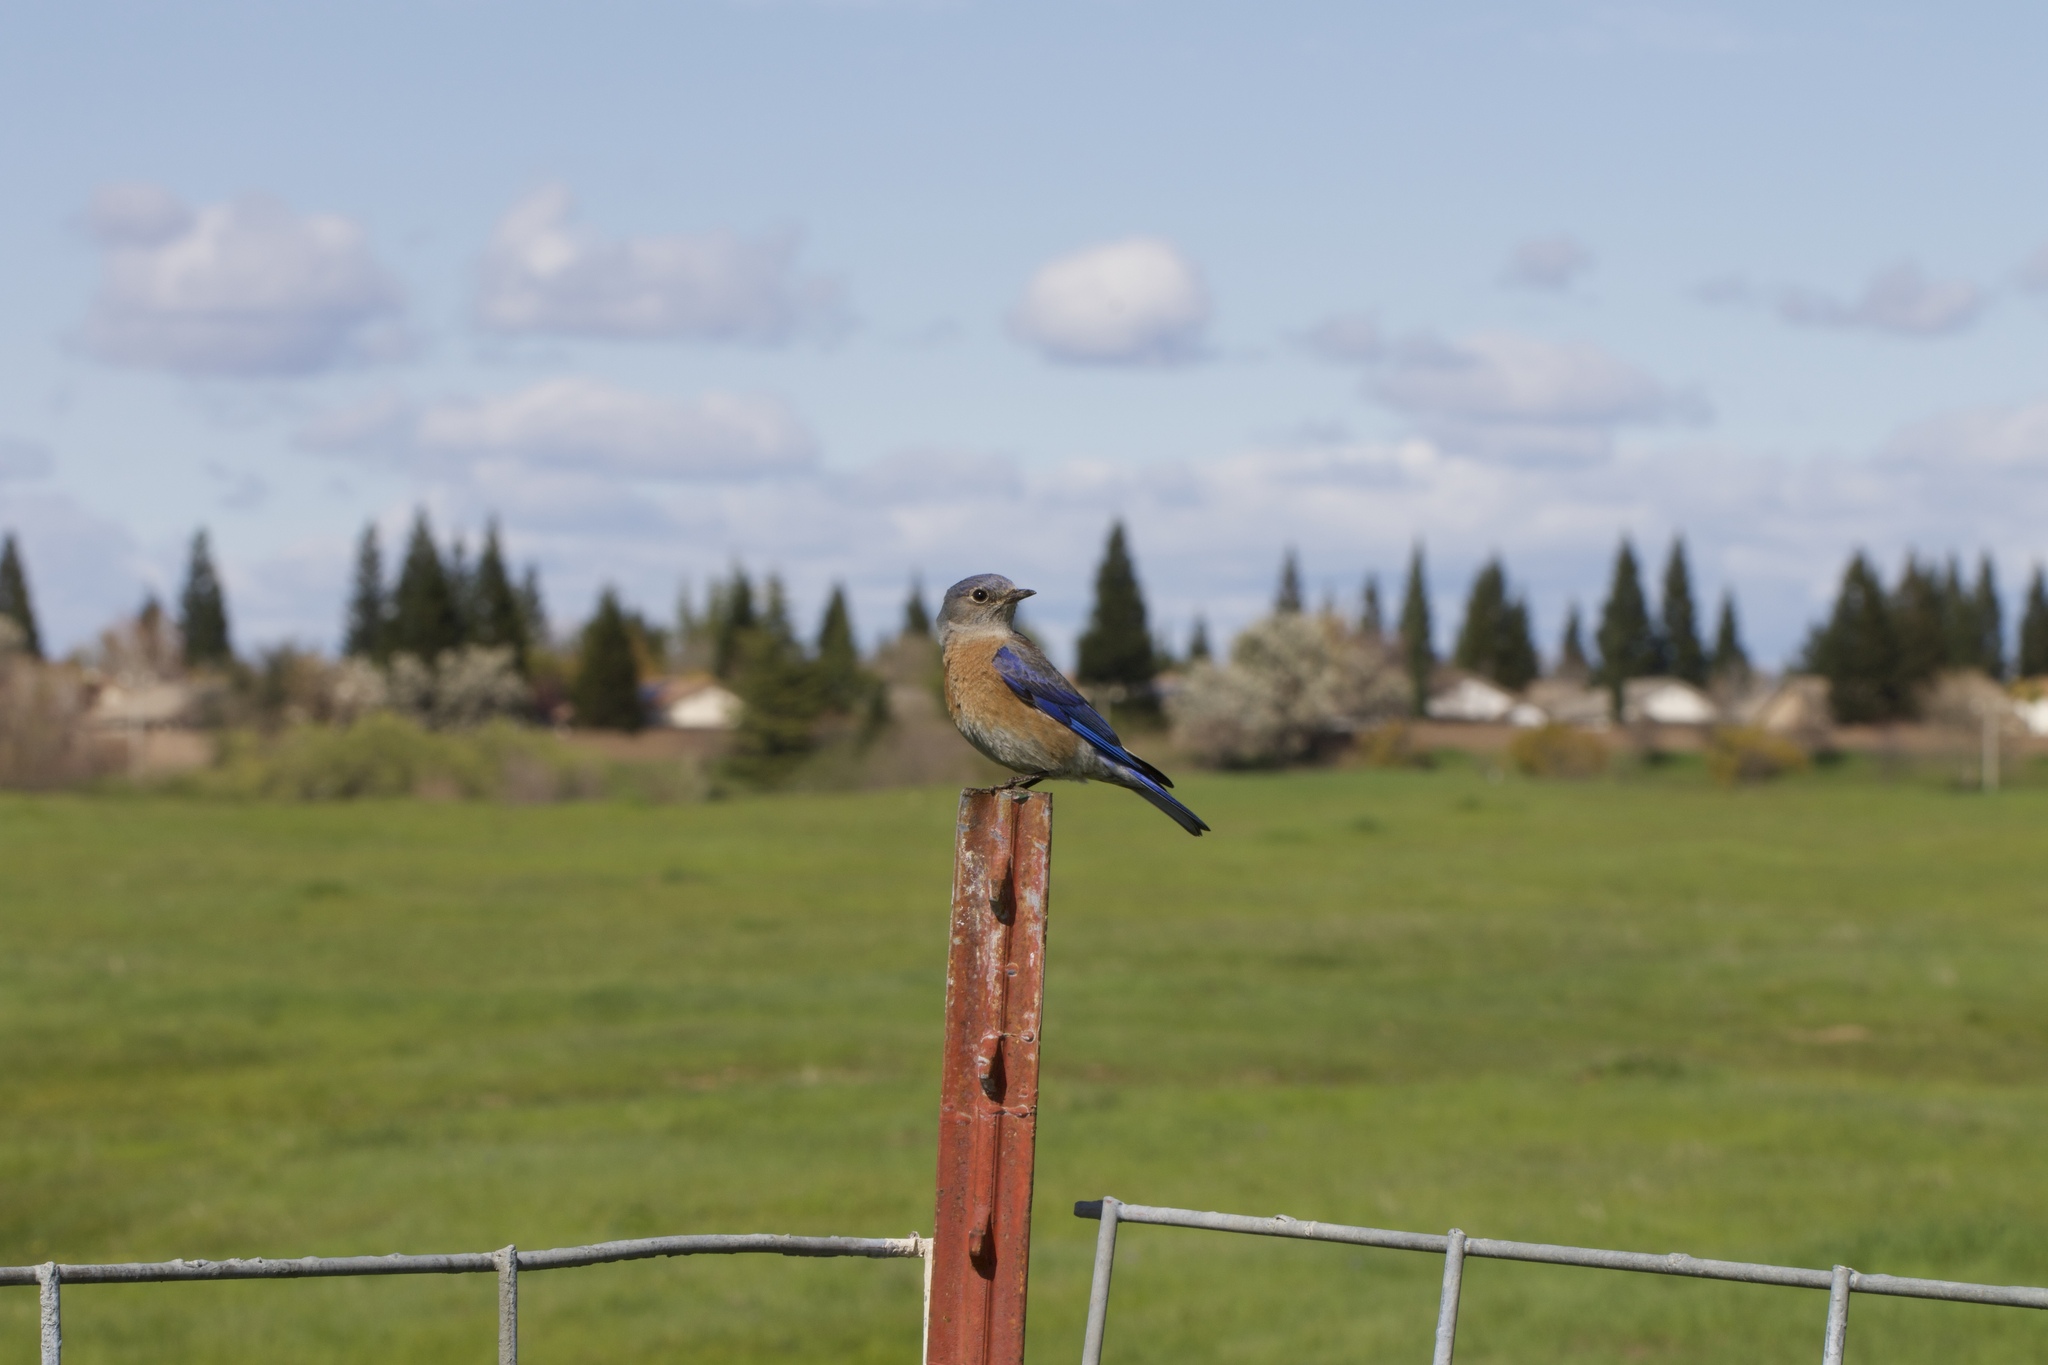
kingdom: Animalia
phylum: Chordata
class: Aves
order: Passeriformes
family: Turdidae
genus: Sialia
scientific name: Sialia mexicana
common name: Western bluebird
